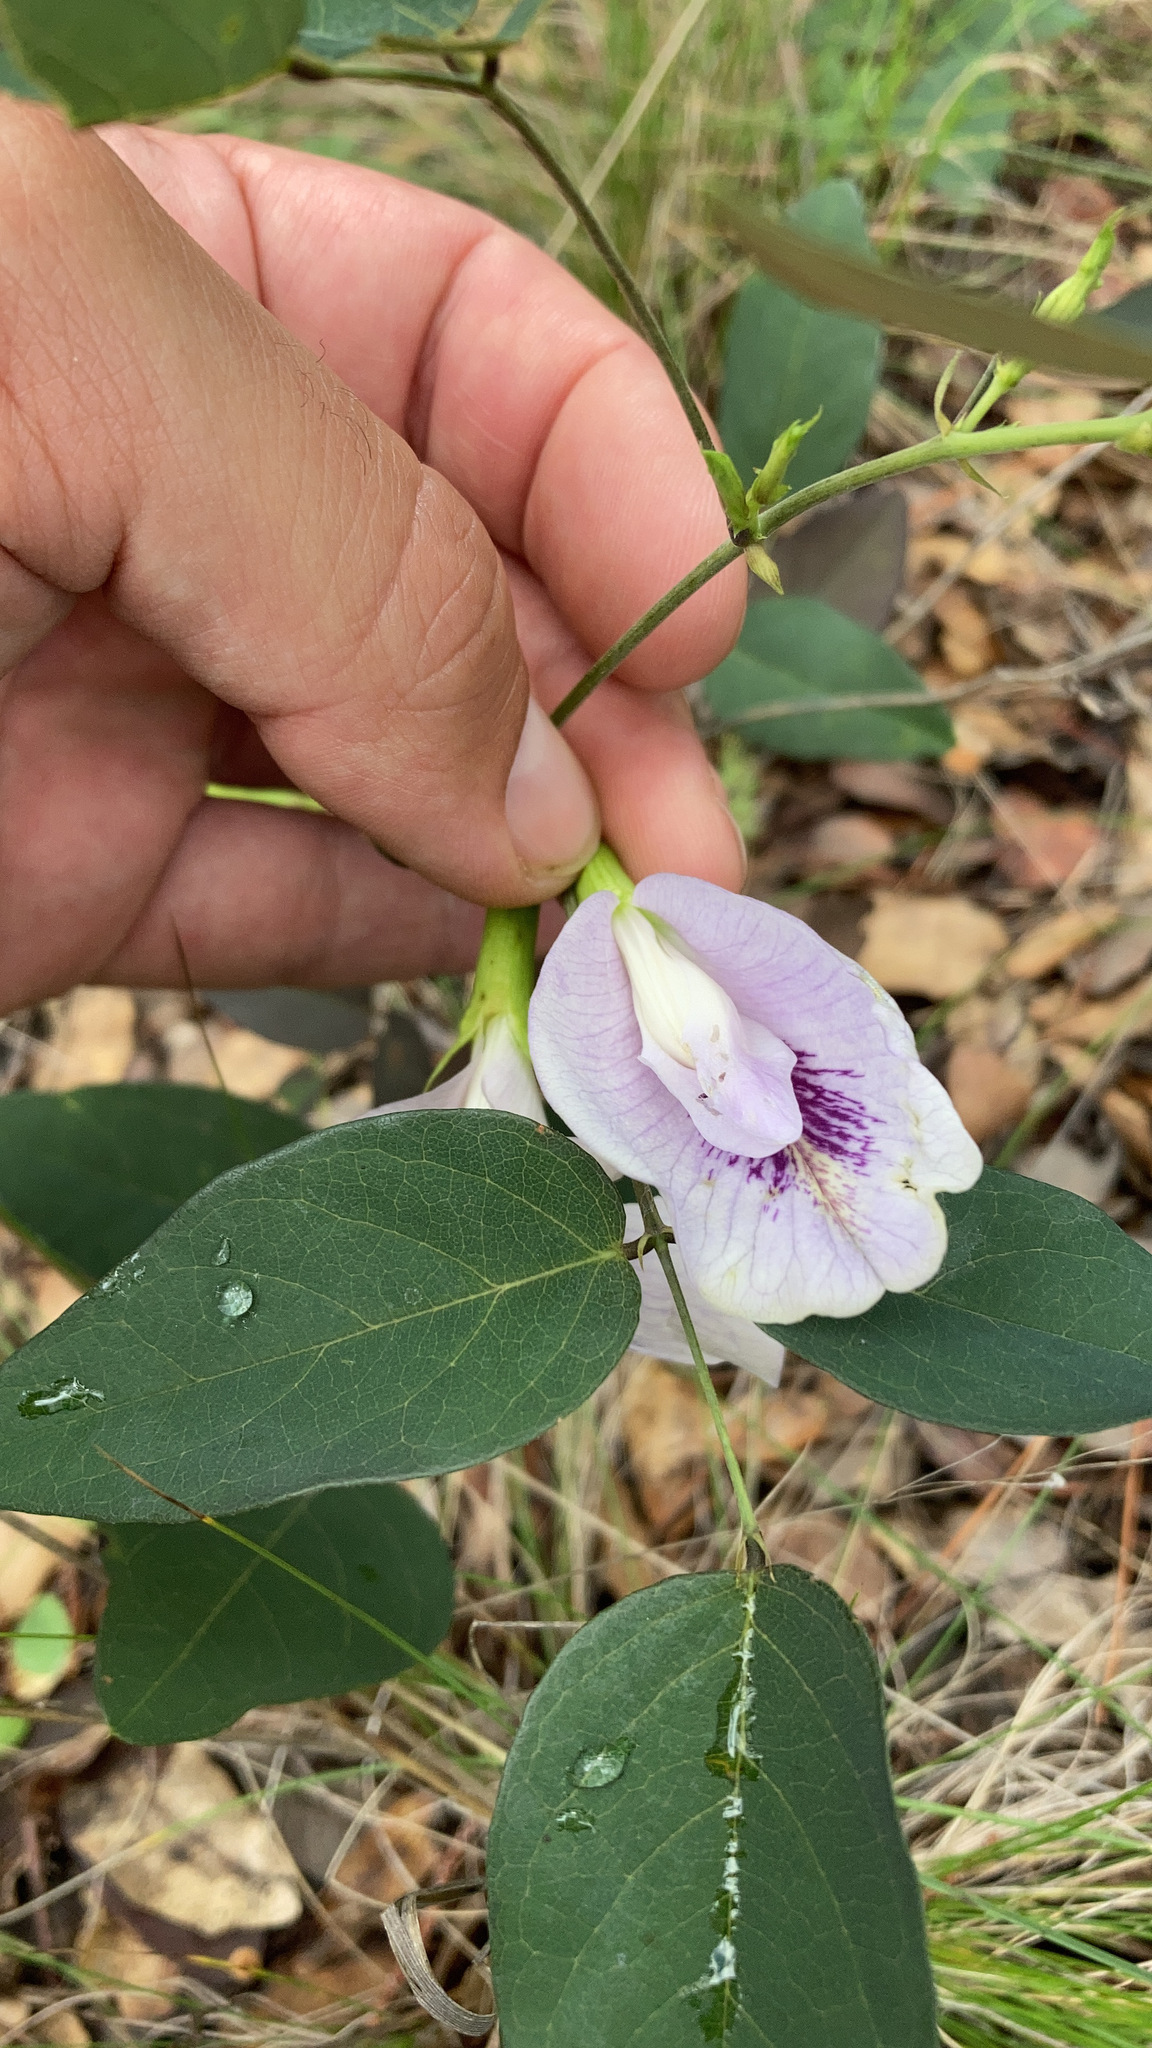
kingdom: Plantae
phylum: Tracheophyta
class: Magnoliopsida
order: Fabales
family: Fabaceae
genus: Clitoria
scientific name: Clitoria mariana
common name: Butterfly-pea
